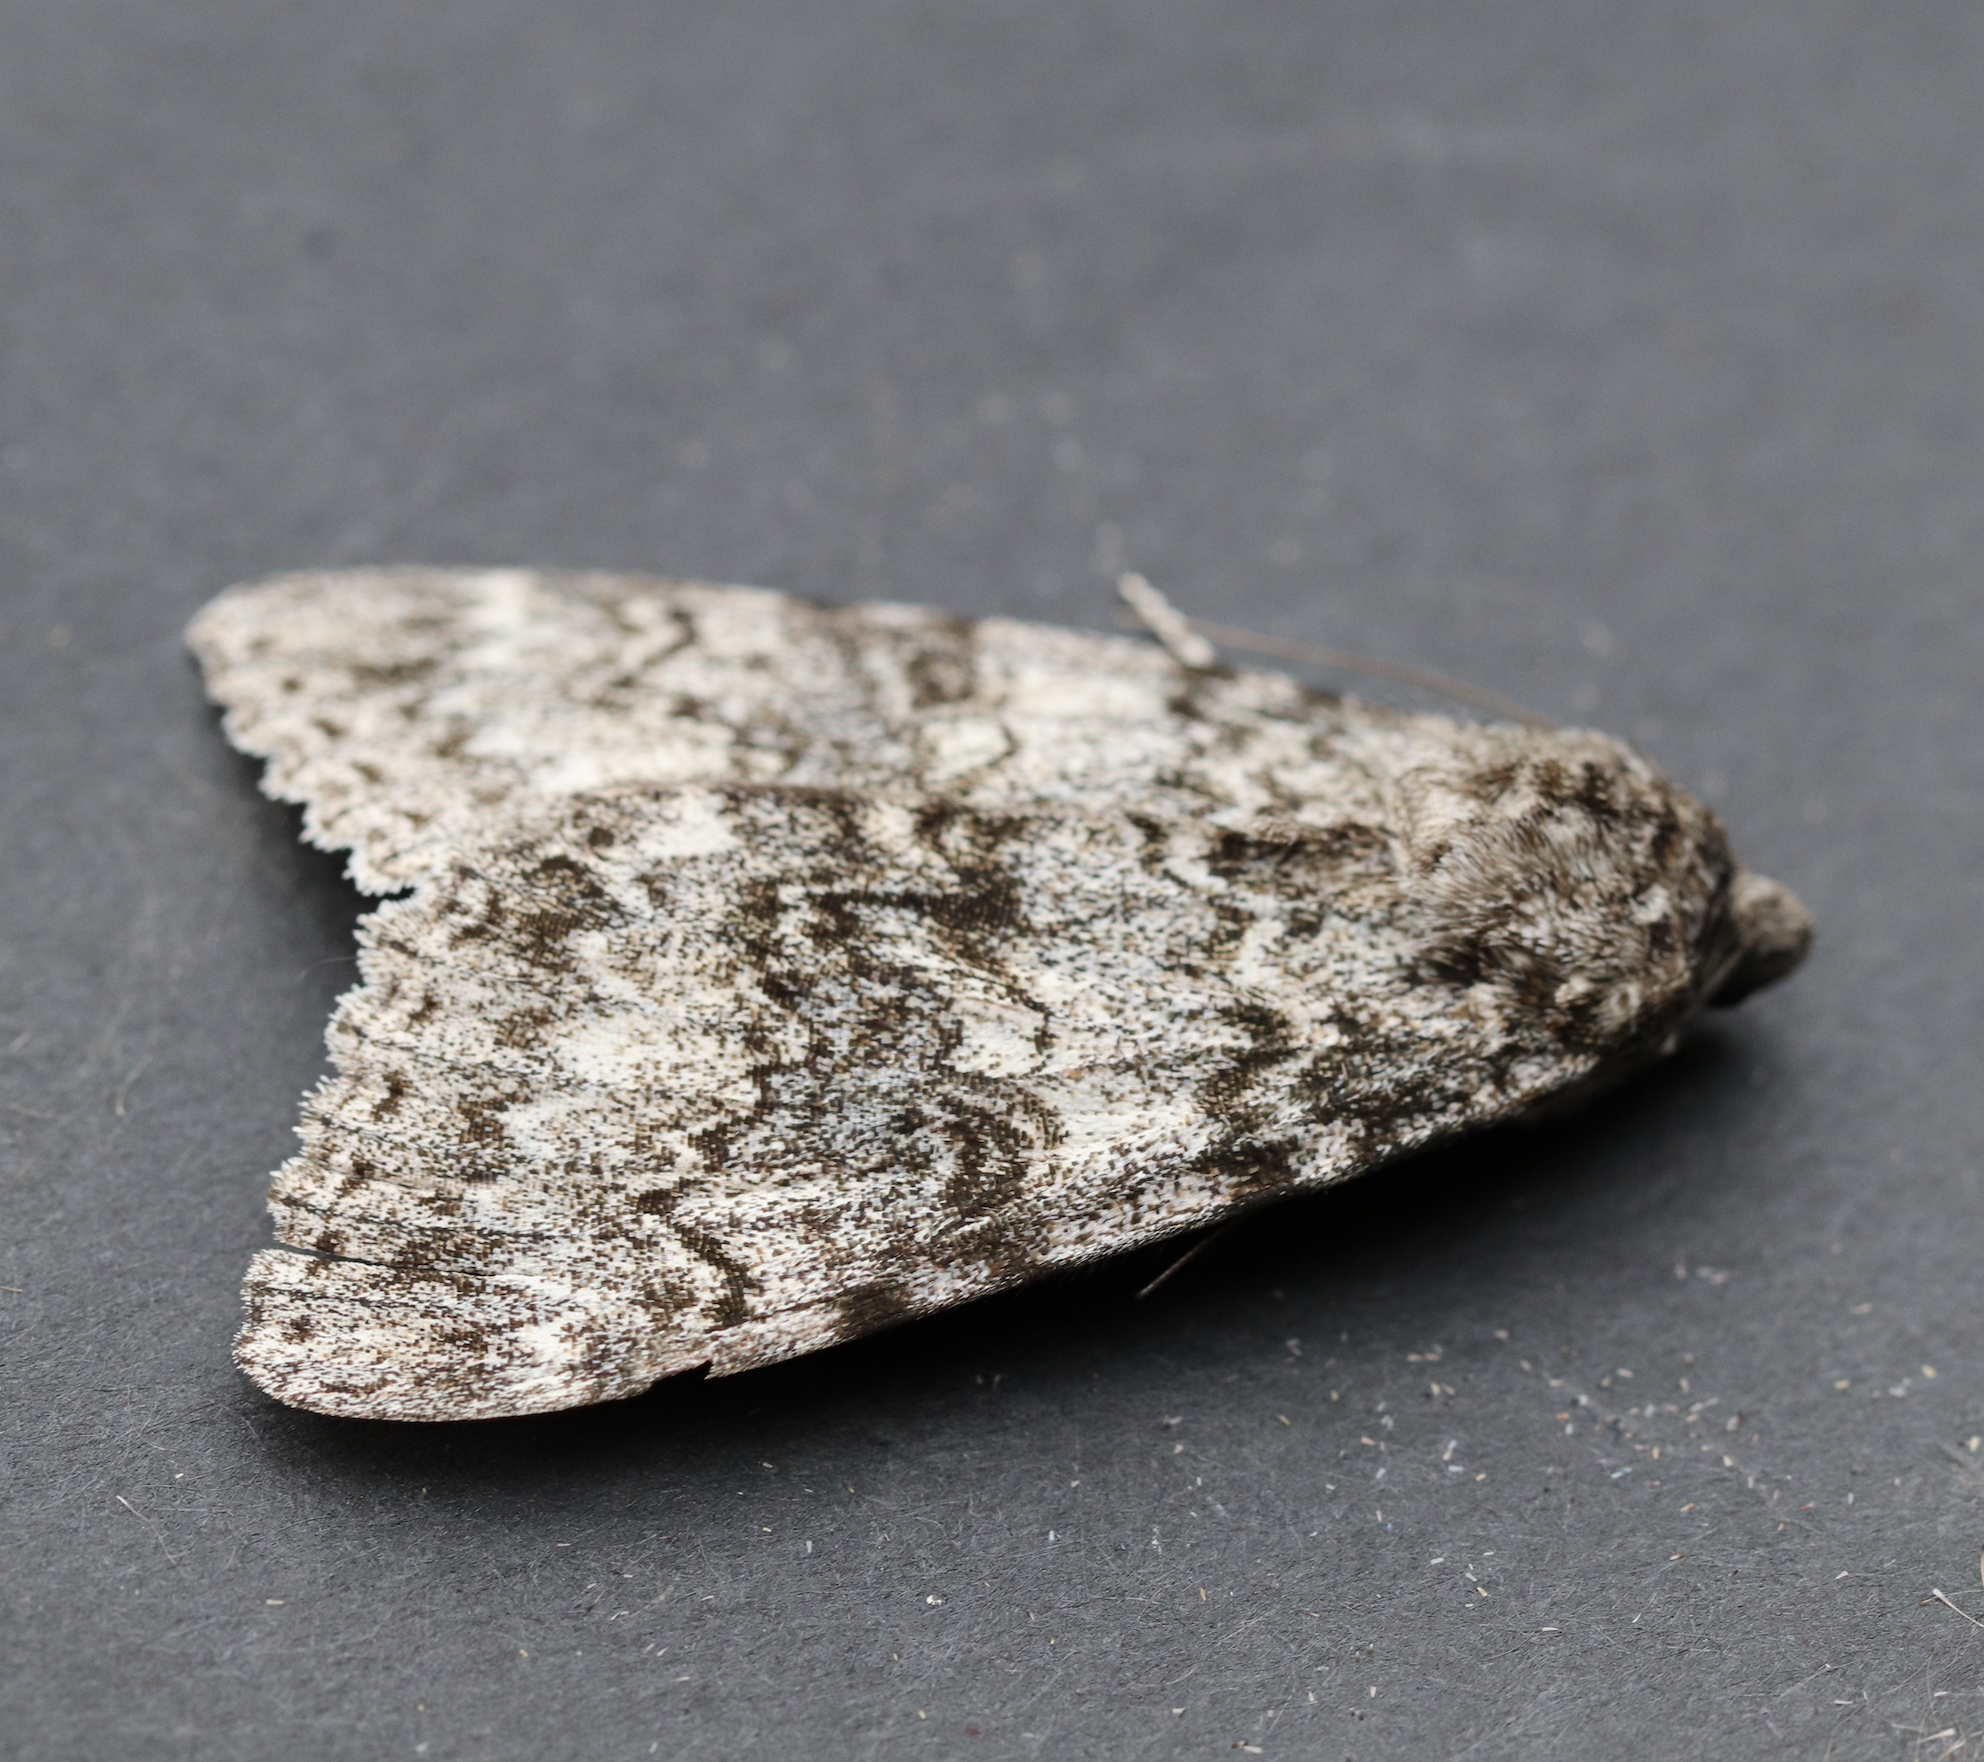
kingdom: Animalia
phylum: Arthropoda
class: Insecta
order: Lepidoptera
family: Erebidae
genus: Catocala
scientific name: Catocala unijuga
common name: Once-married underwing
